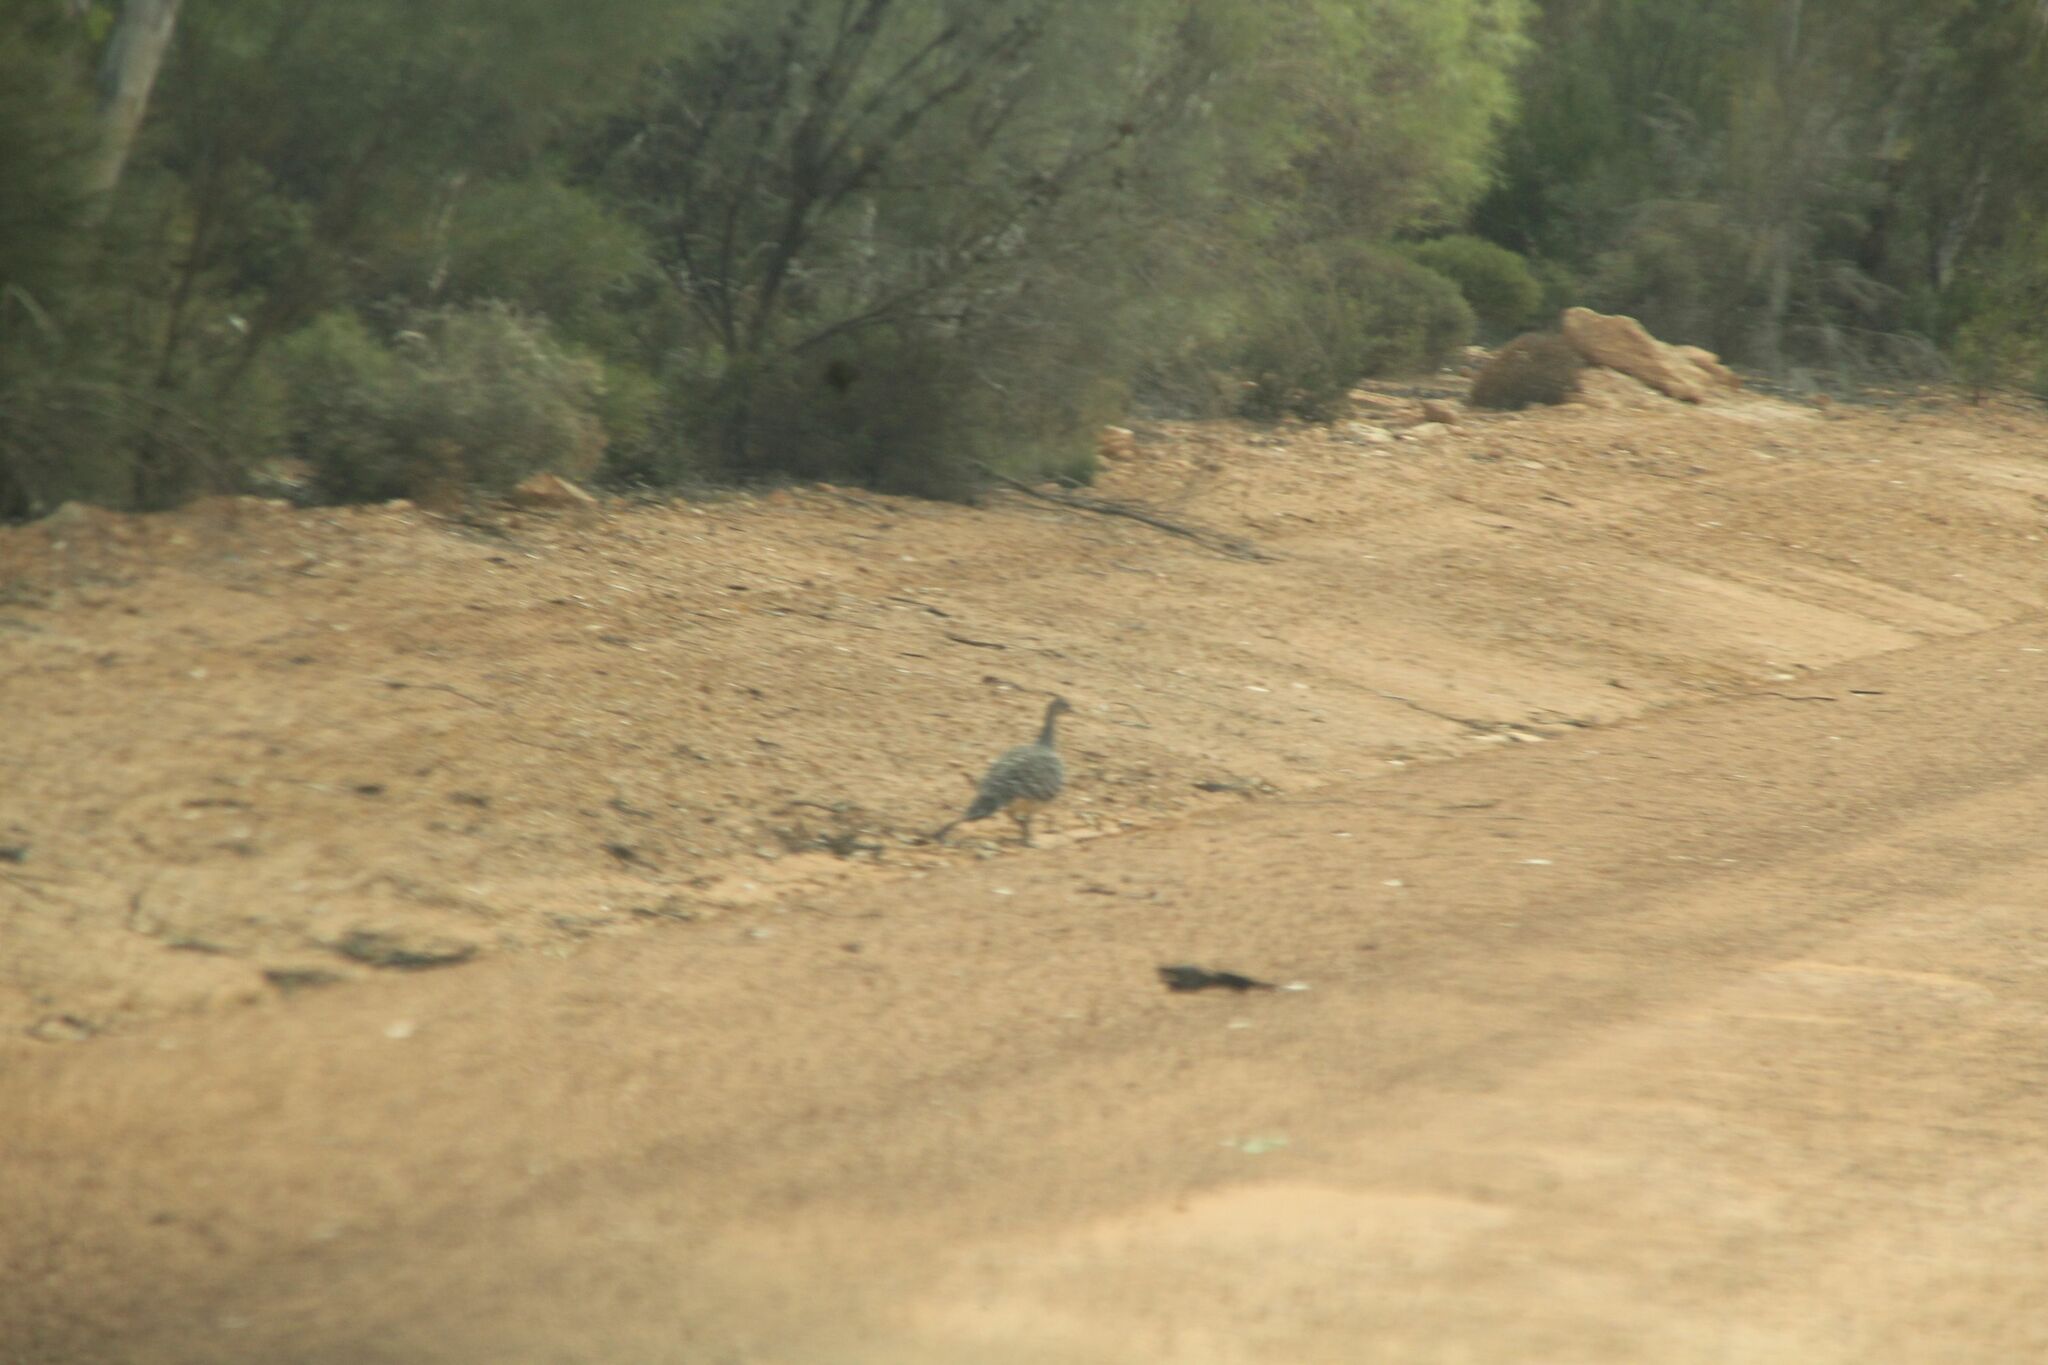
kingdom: Animalia
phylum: Chordata
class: Aves
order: Galliformes
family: Megapodiidae
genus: Leipoa
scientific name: Leipoa ocellata
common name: Malleefowl
